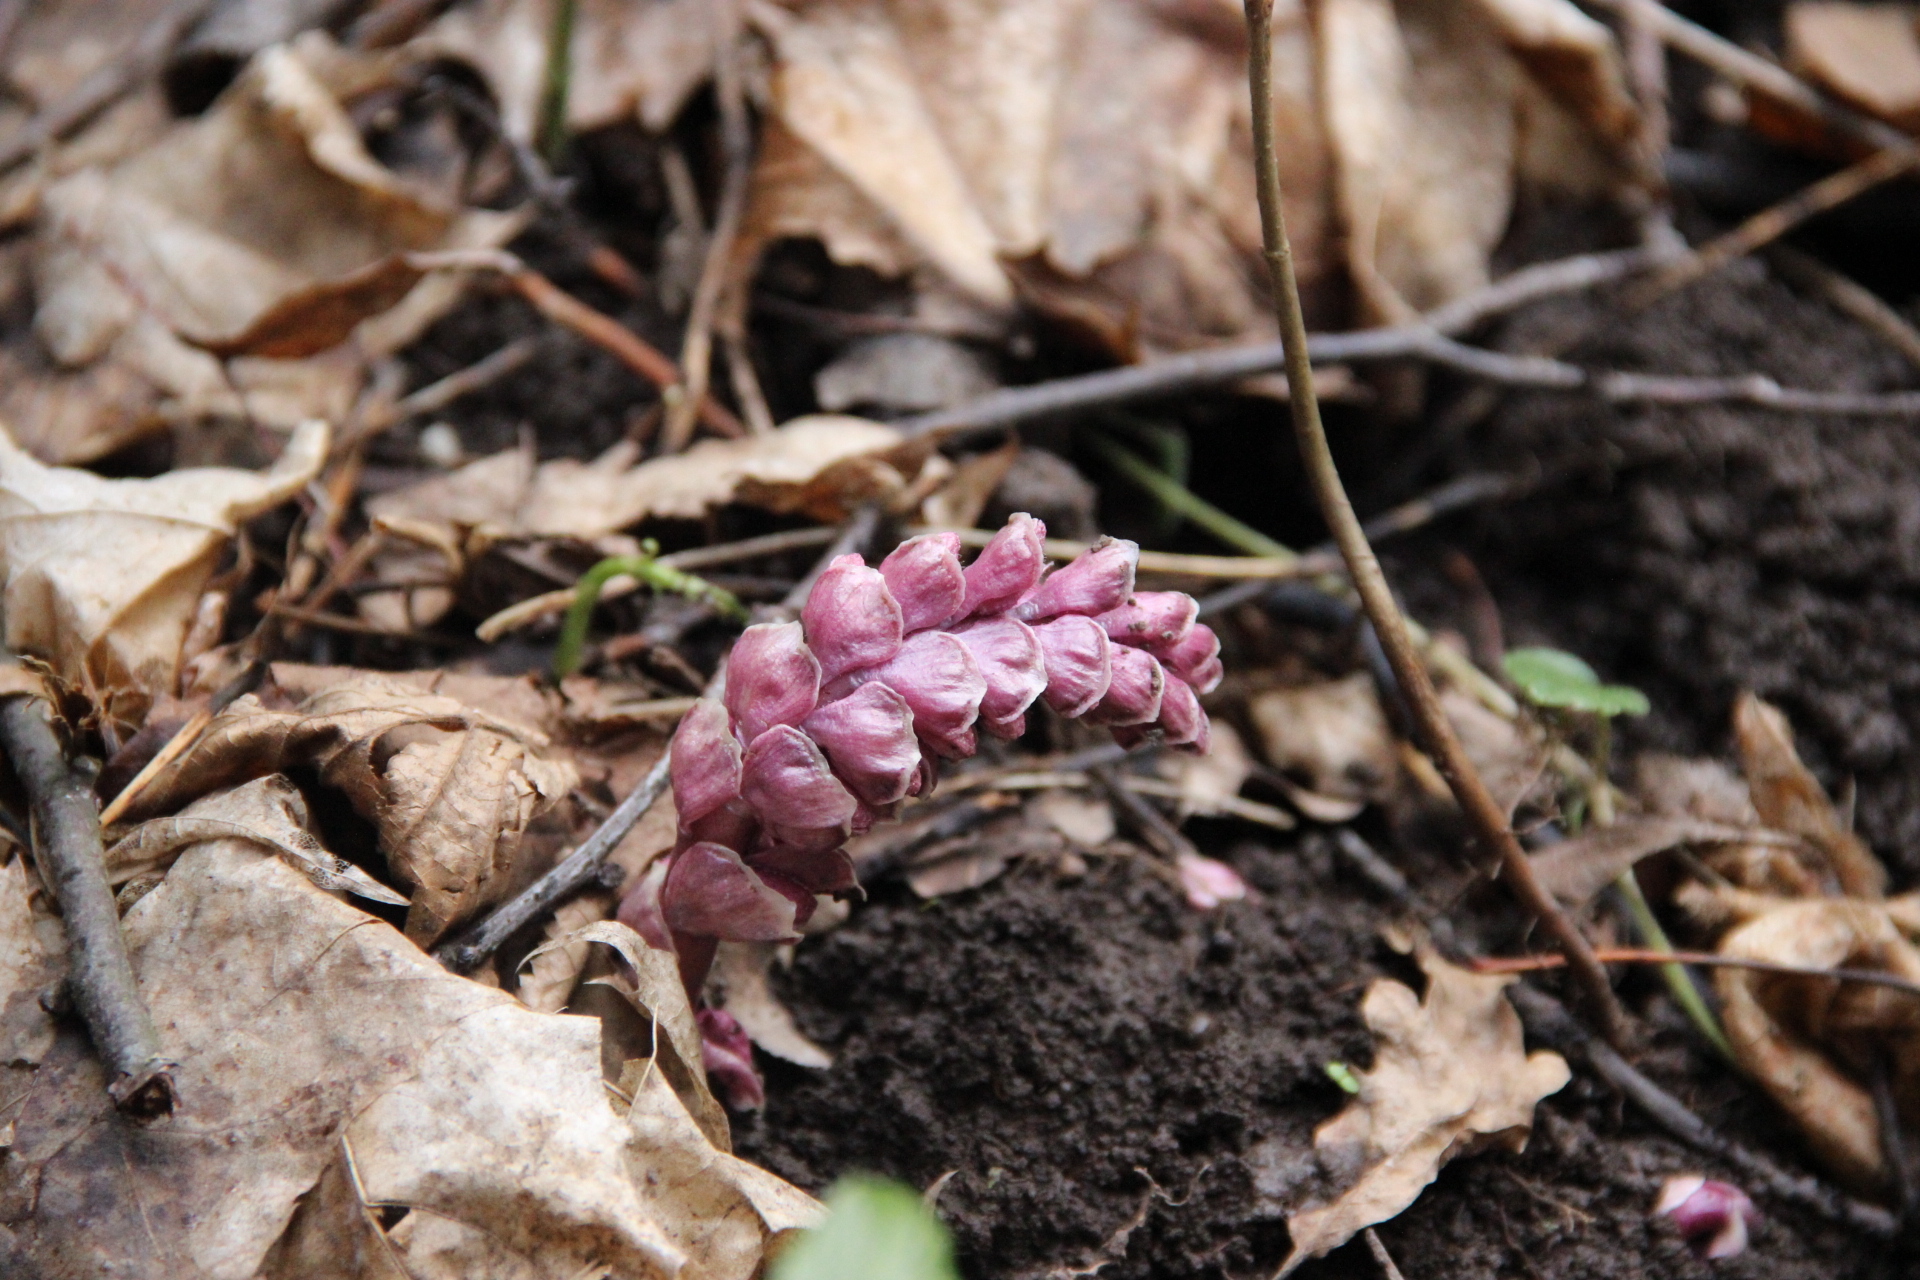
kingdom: Plantae
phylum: Tracheophyta
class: Magnoliopsida
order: Lamiales
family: Orobanchaceae
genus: Lathraea
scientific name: Lathraea squamaria
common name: Toothwort
